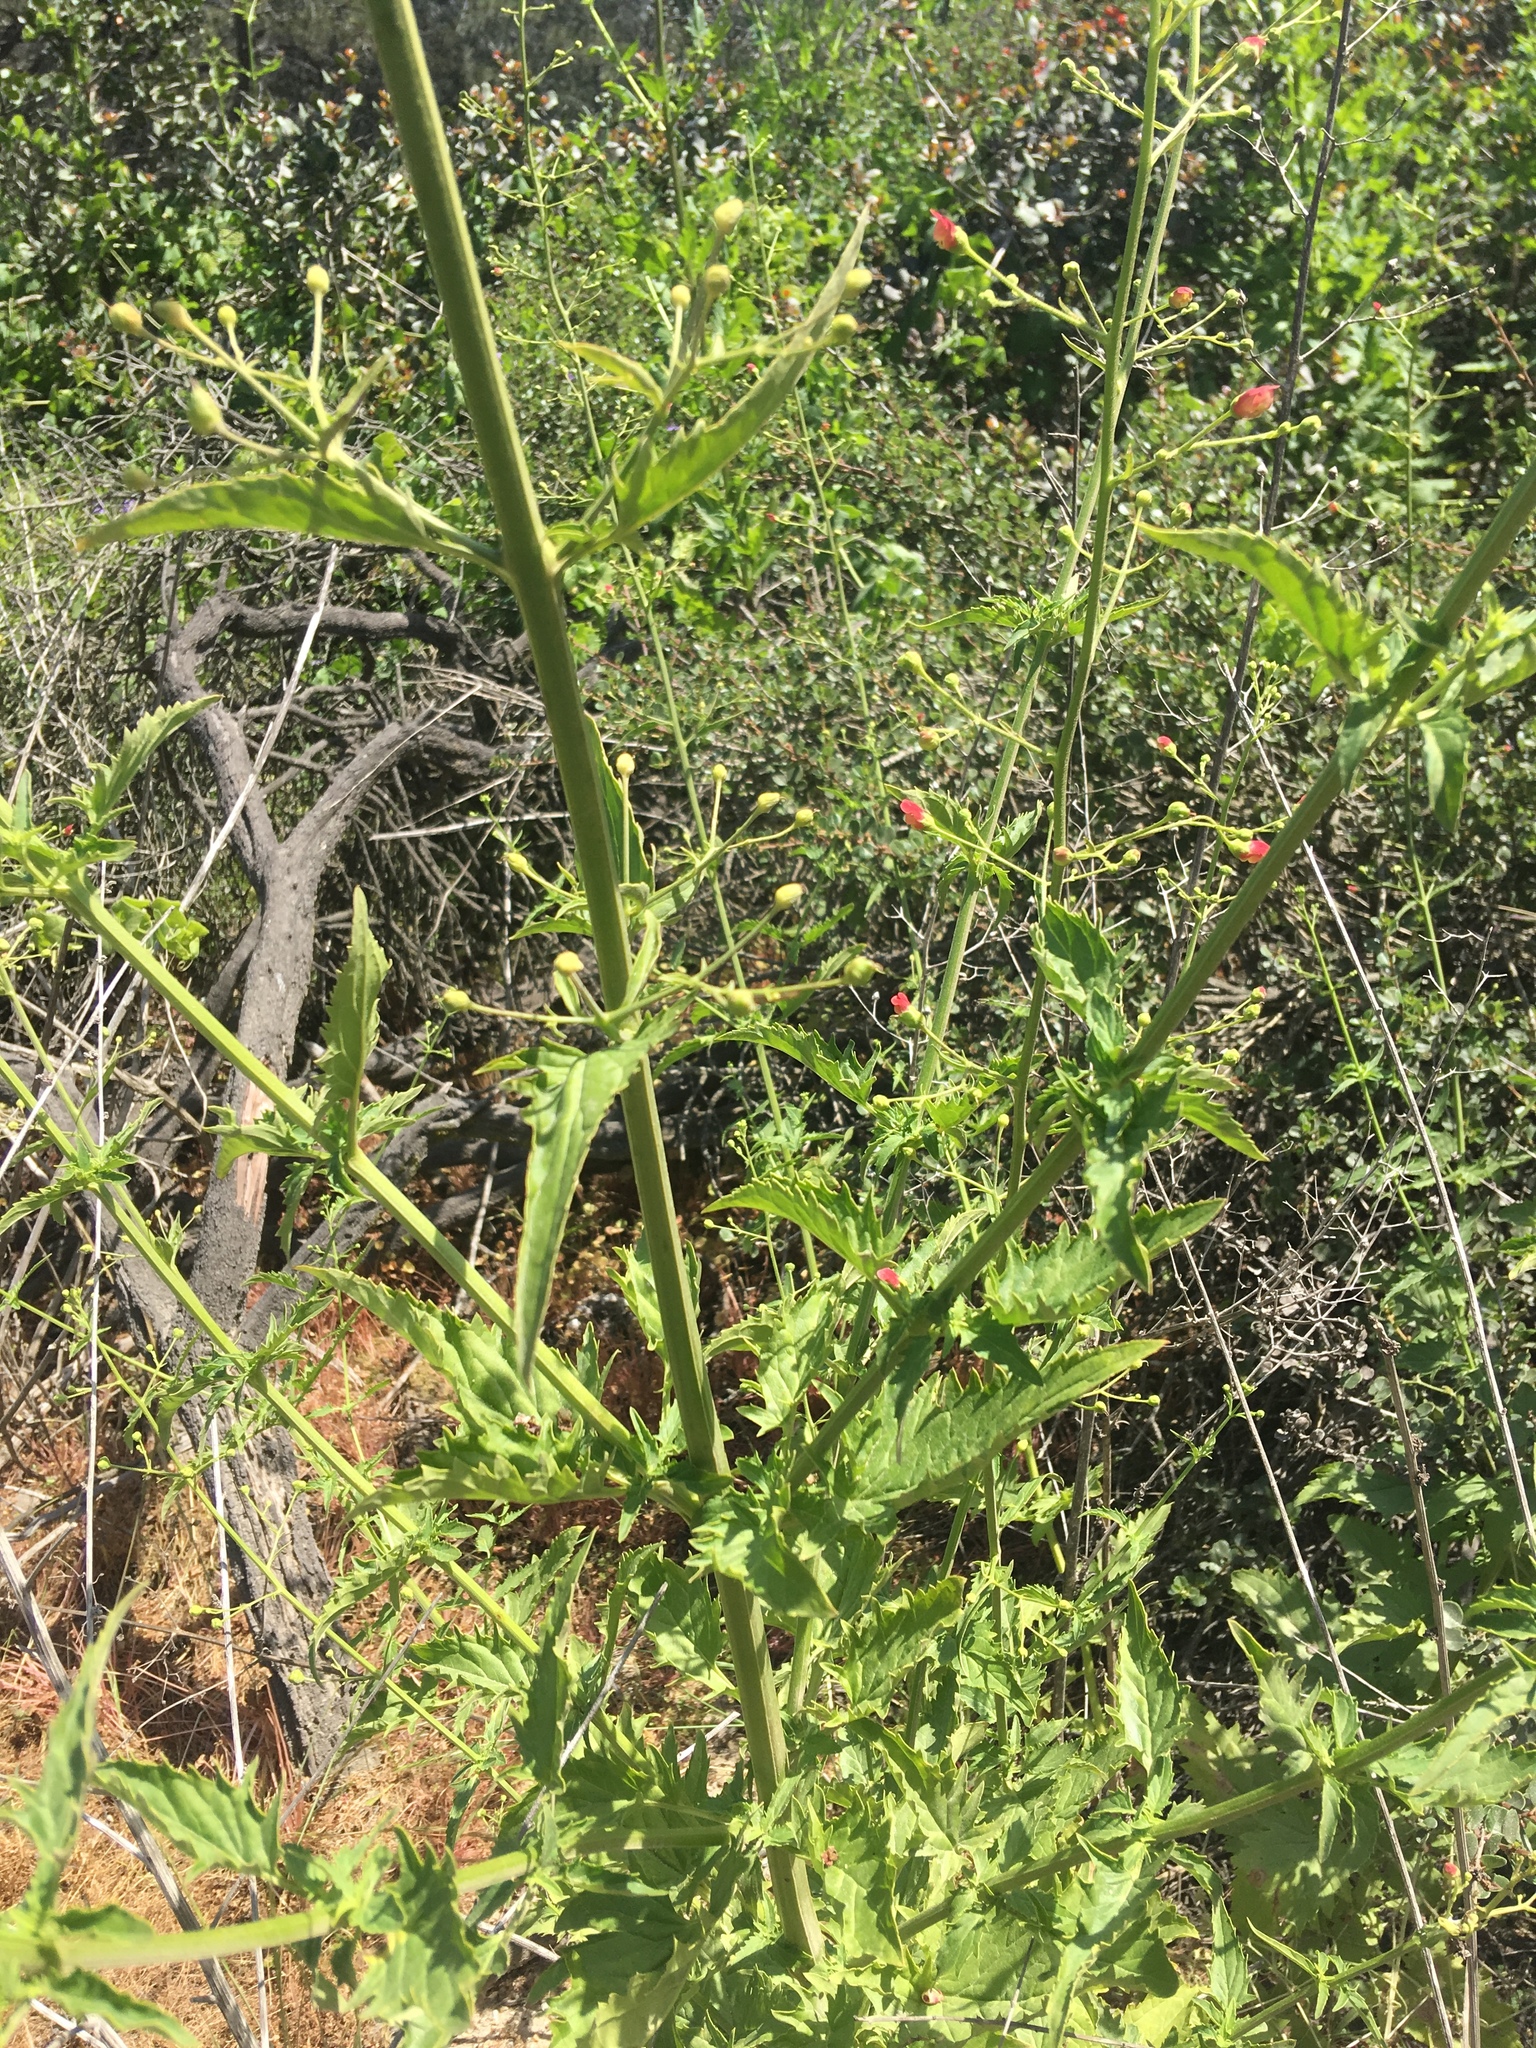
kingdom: Plantae
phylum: Tracheophyta
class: Magnoliopsida
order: Lamiales
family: Scrophulariaceae
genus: Scrophularia
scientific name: Scrophularia californica
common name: California figwort
